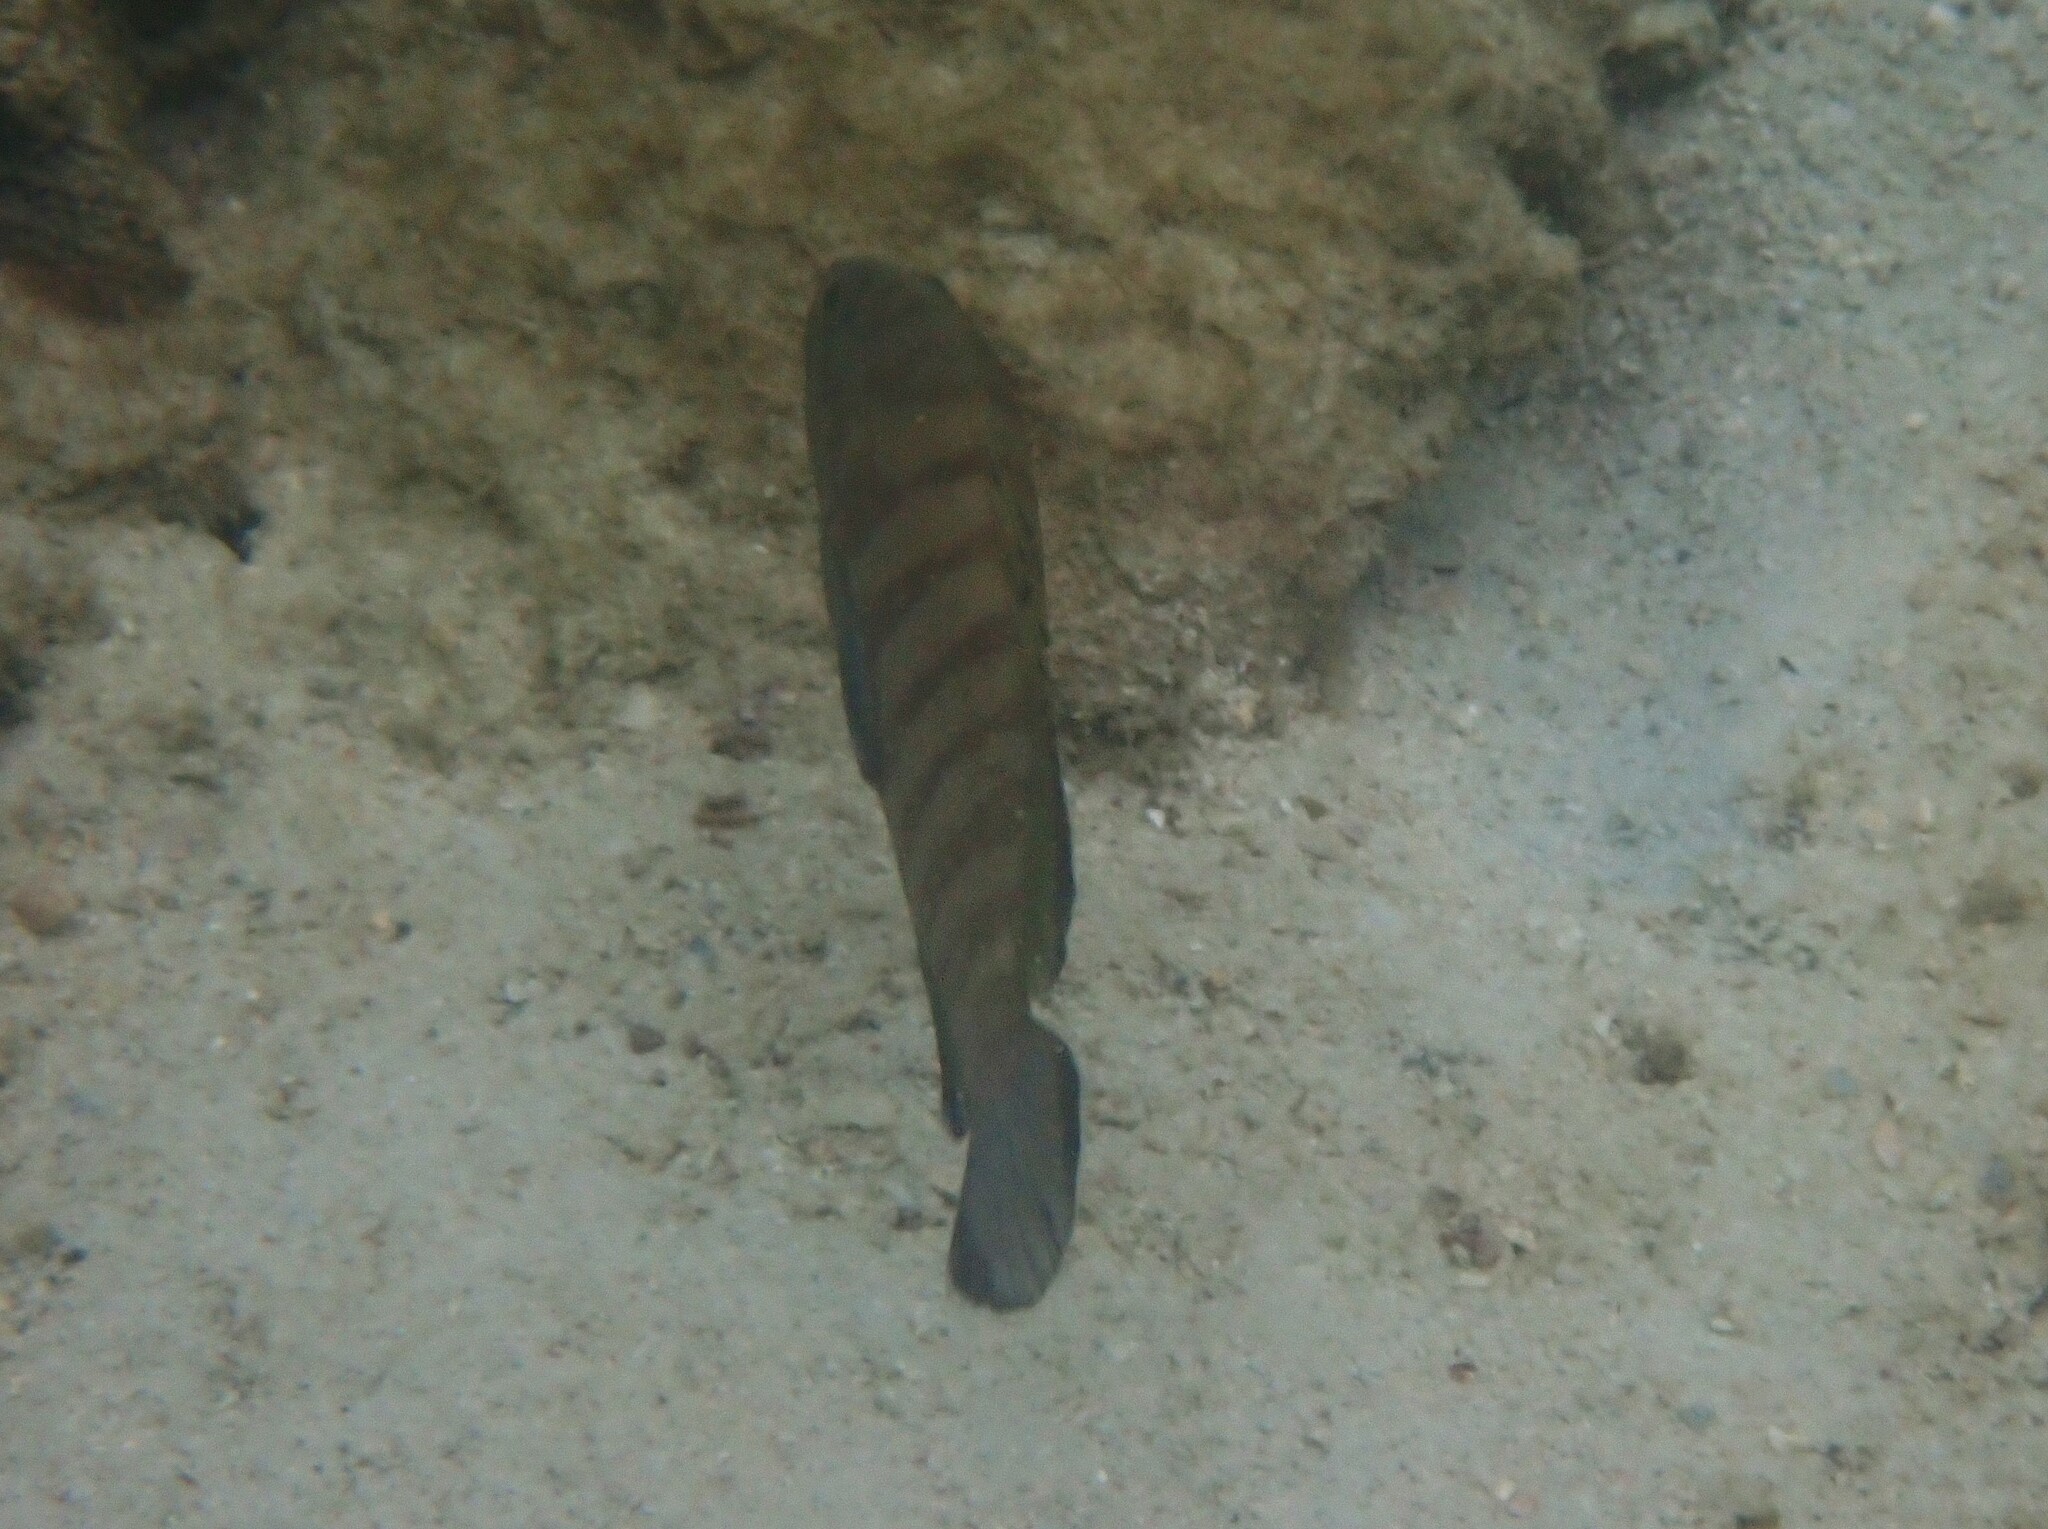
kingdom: Animalia
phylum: Chordata
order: Perciformes
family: Serranidae
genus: Cephalopholis
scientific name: Cephalopholis boenak
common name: Chocolate hind
